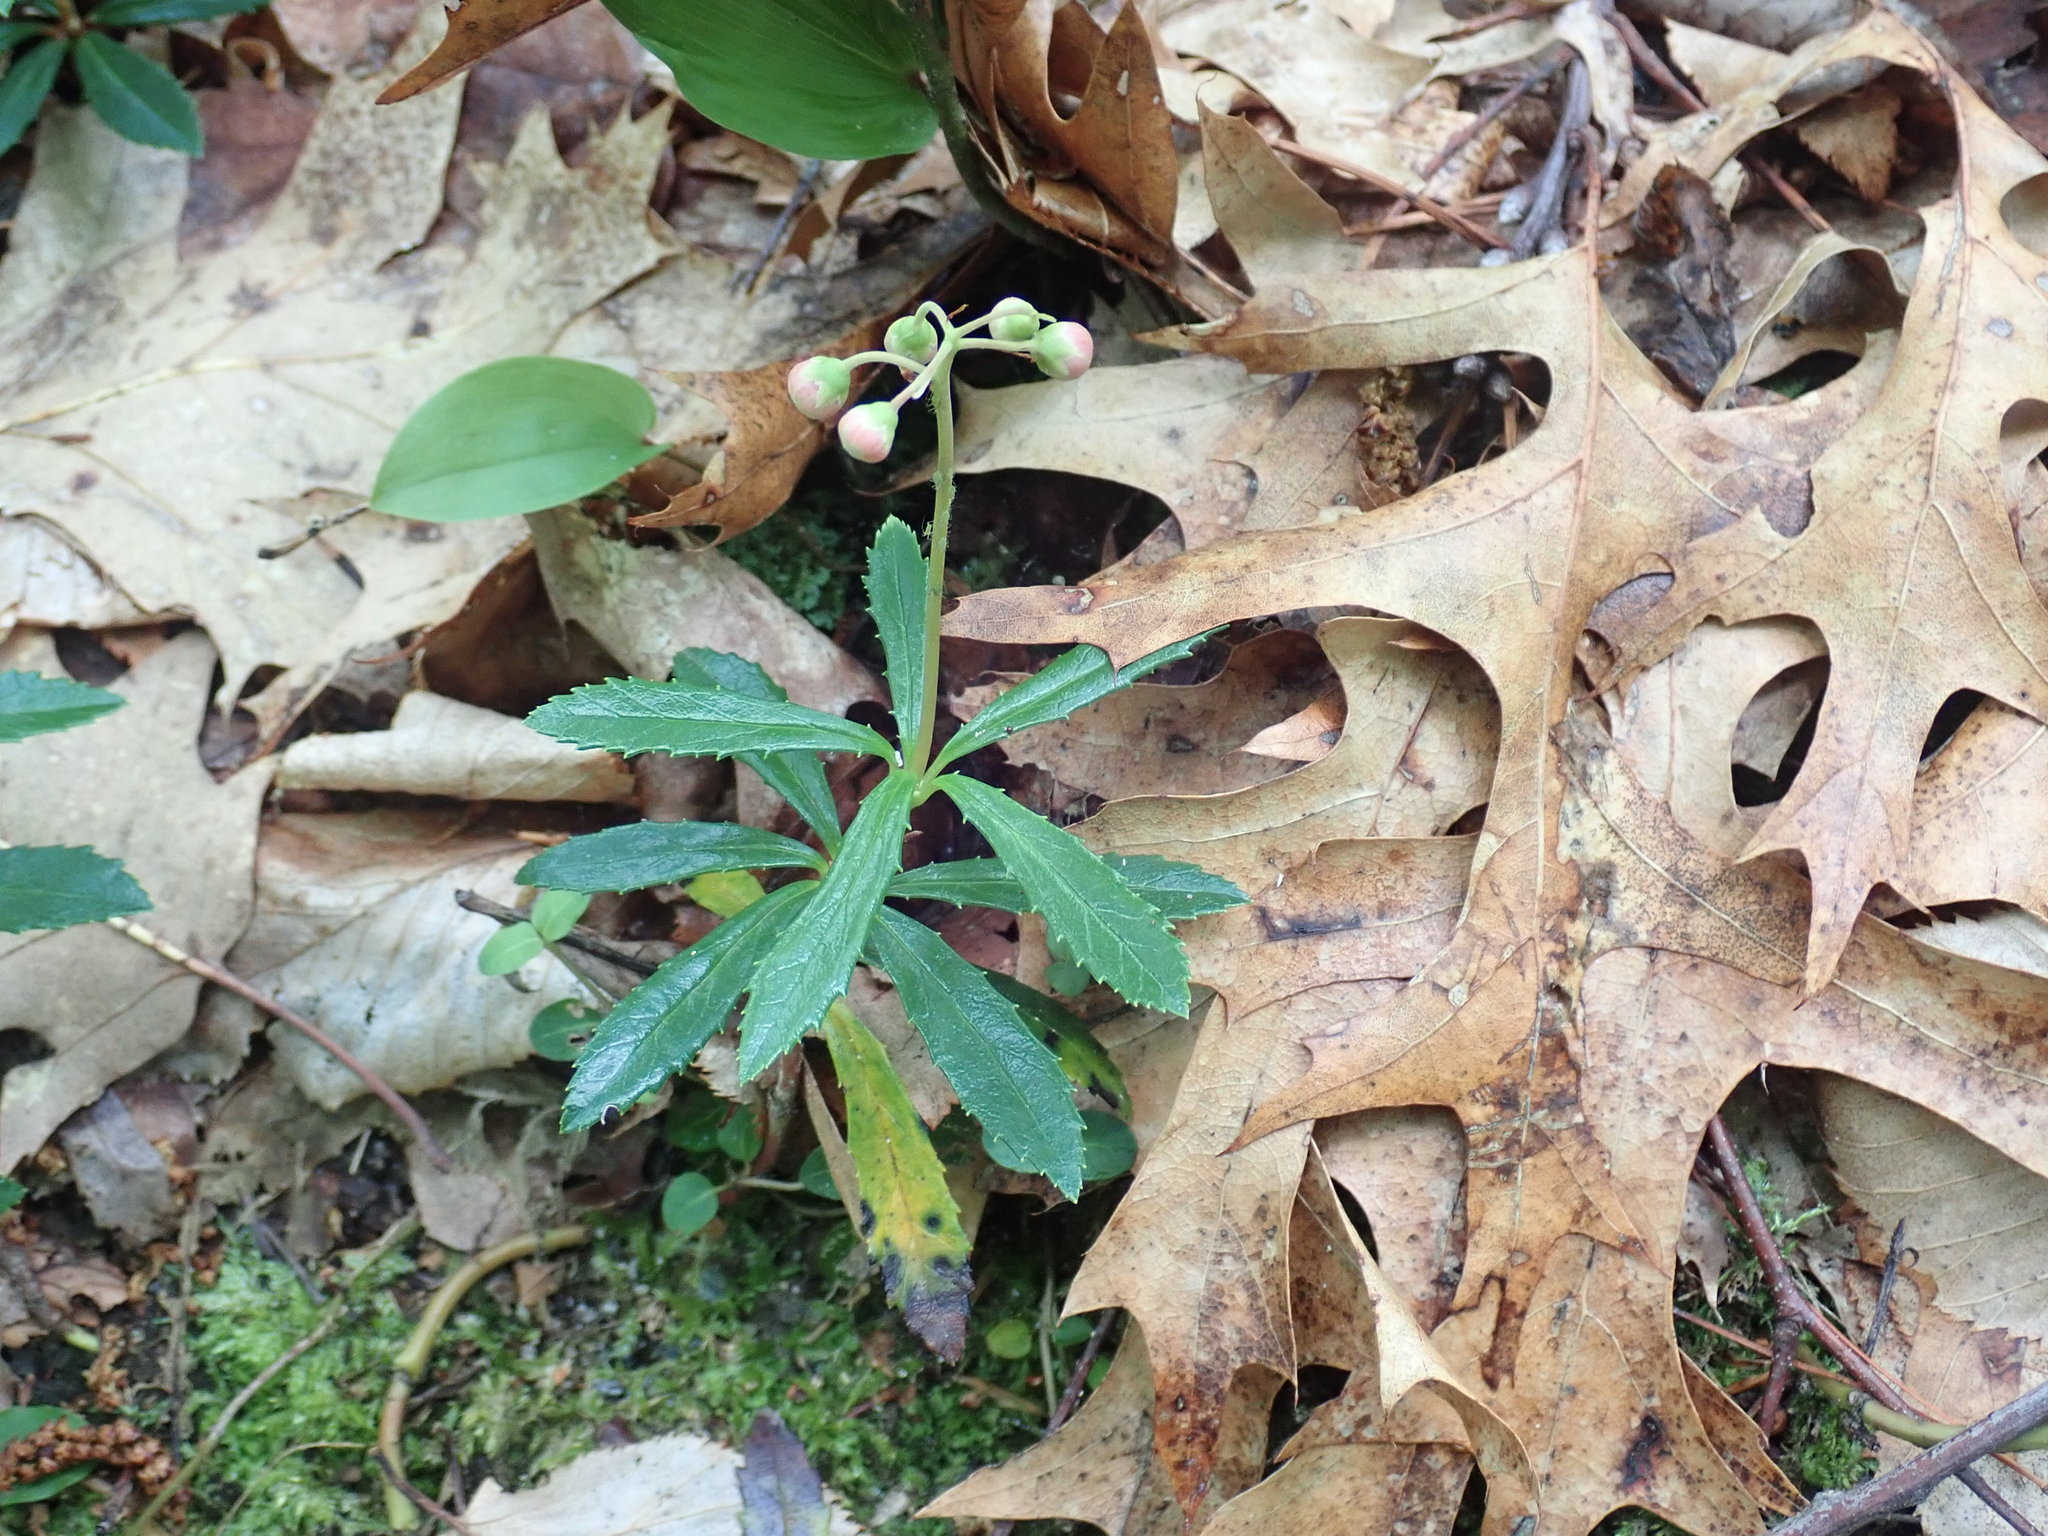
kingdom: Plantae
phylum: Tracheophyta
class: Magnoliopsida
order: Ericales
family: Ericaceae
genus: Chimaphila
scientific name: Chimaphila umbellata
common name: Pipsissewa
